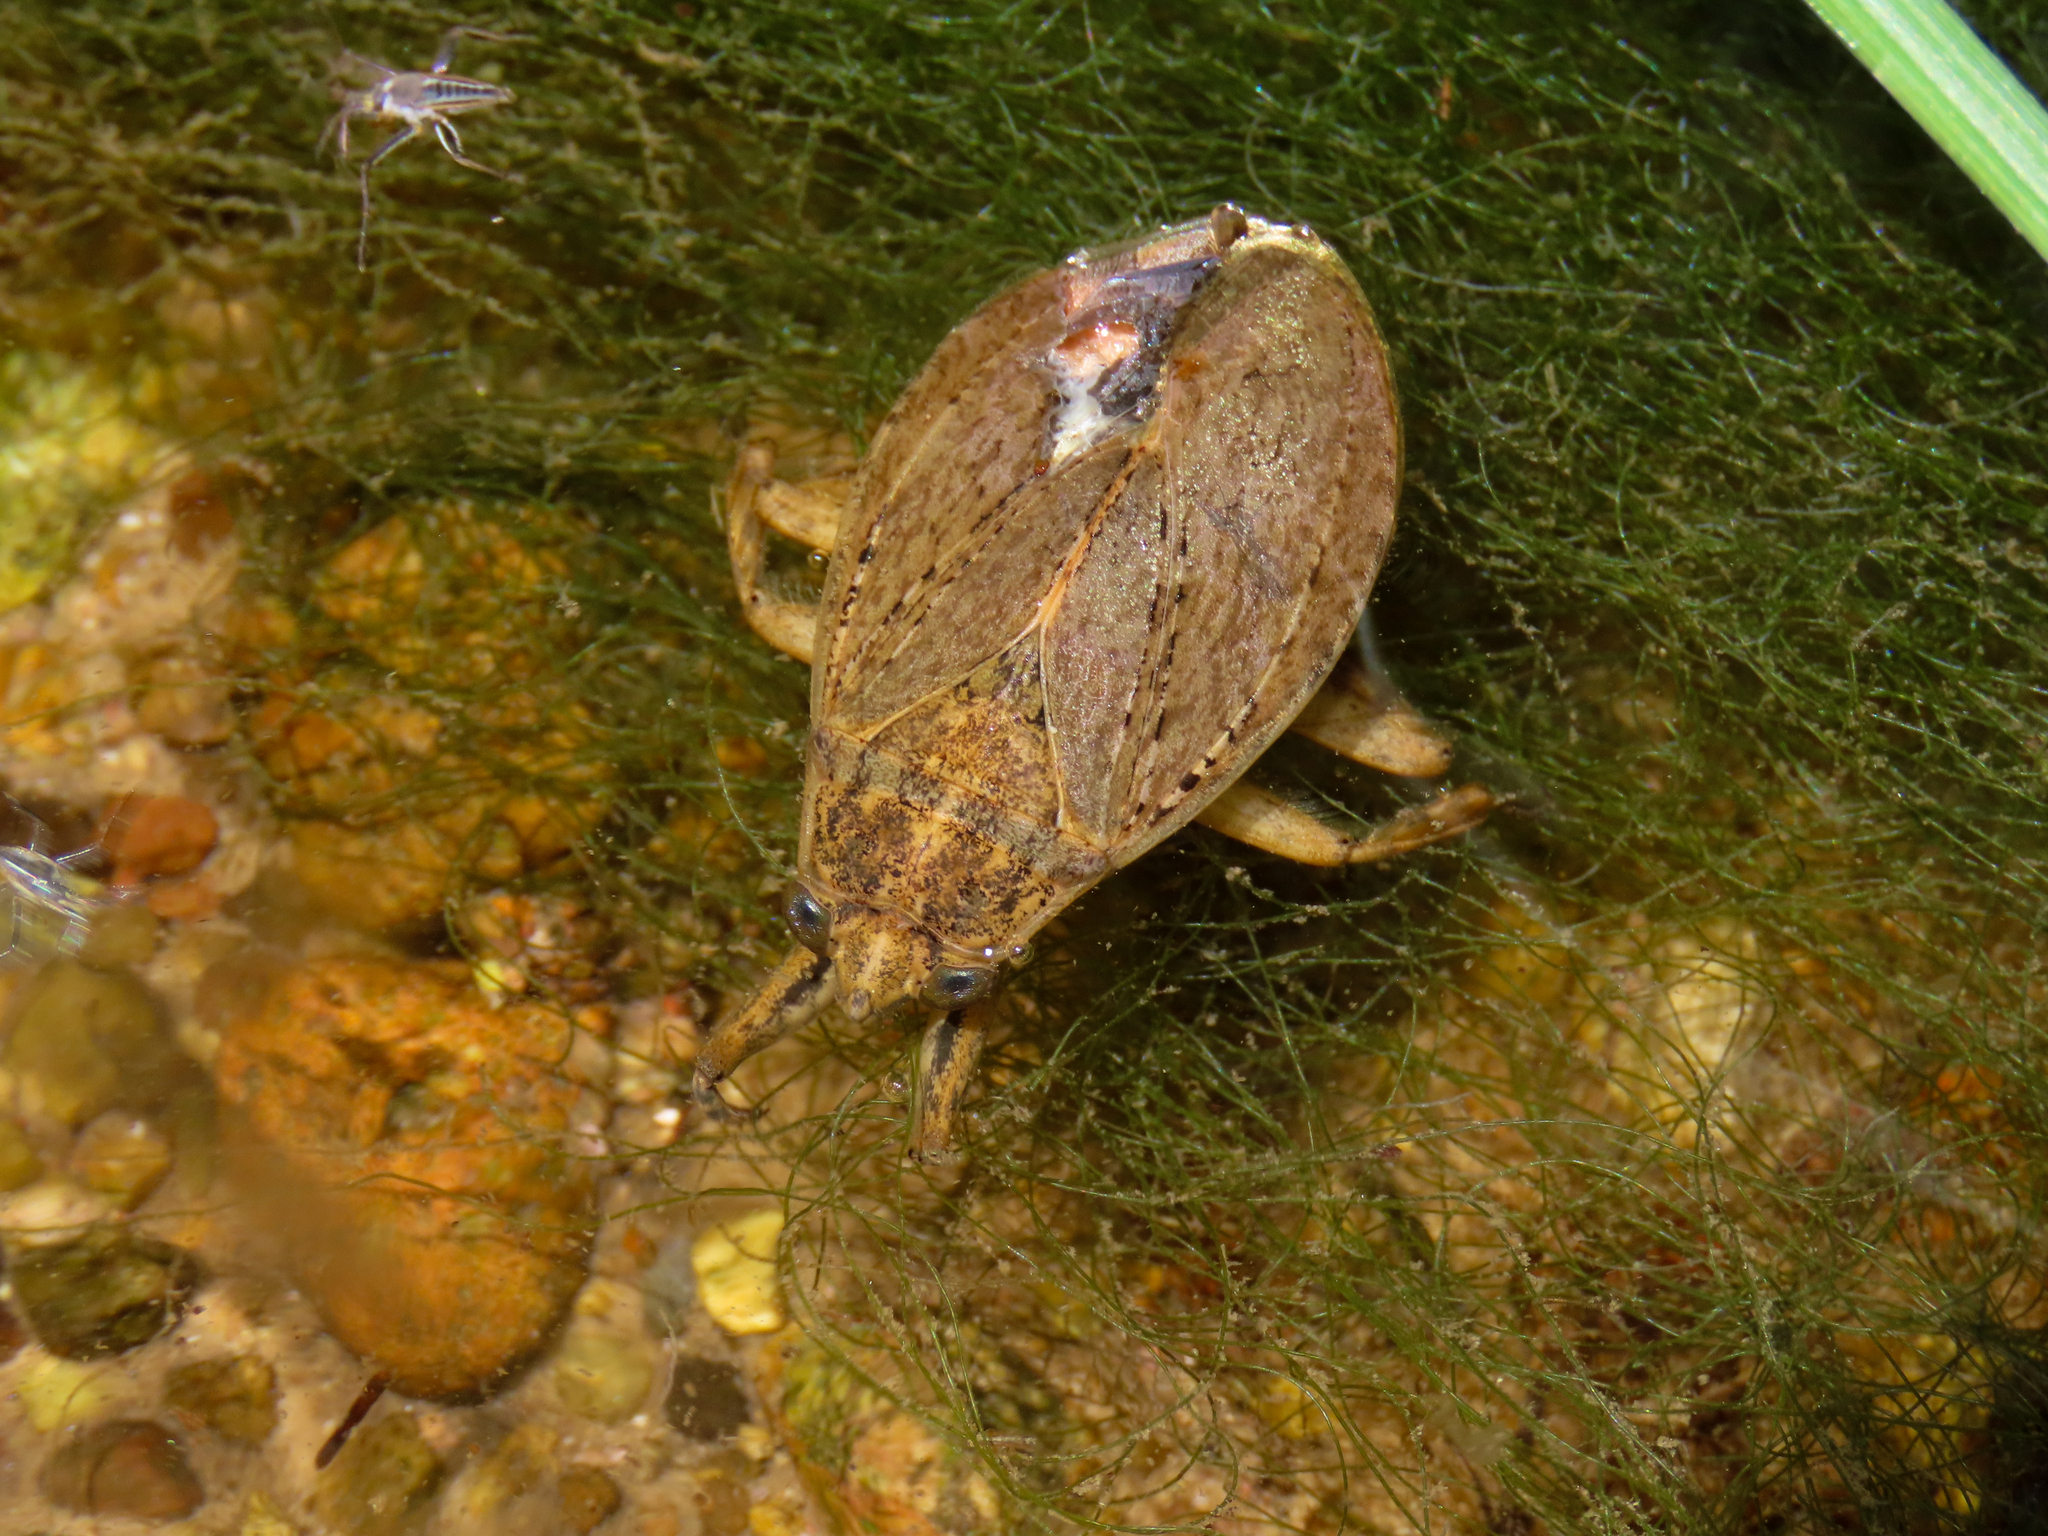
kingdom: Animalia
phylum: Arthropoda
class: Insecta
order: Hemiptera
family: Belostomatidae
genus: Abedus
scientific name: Abedus
